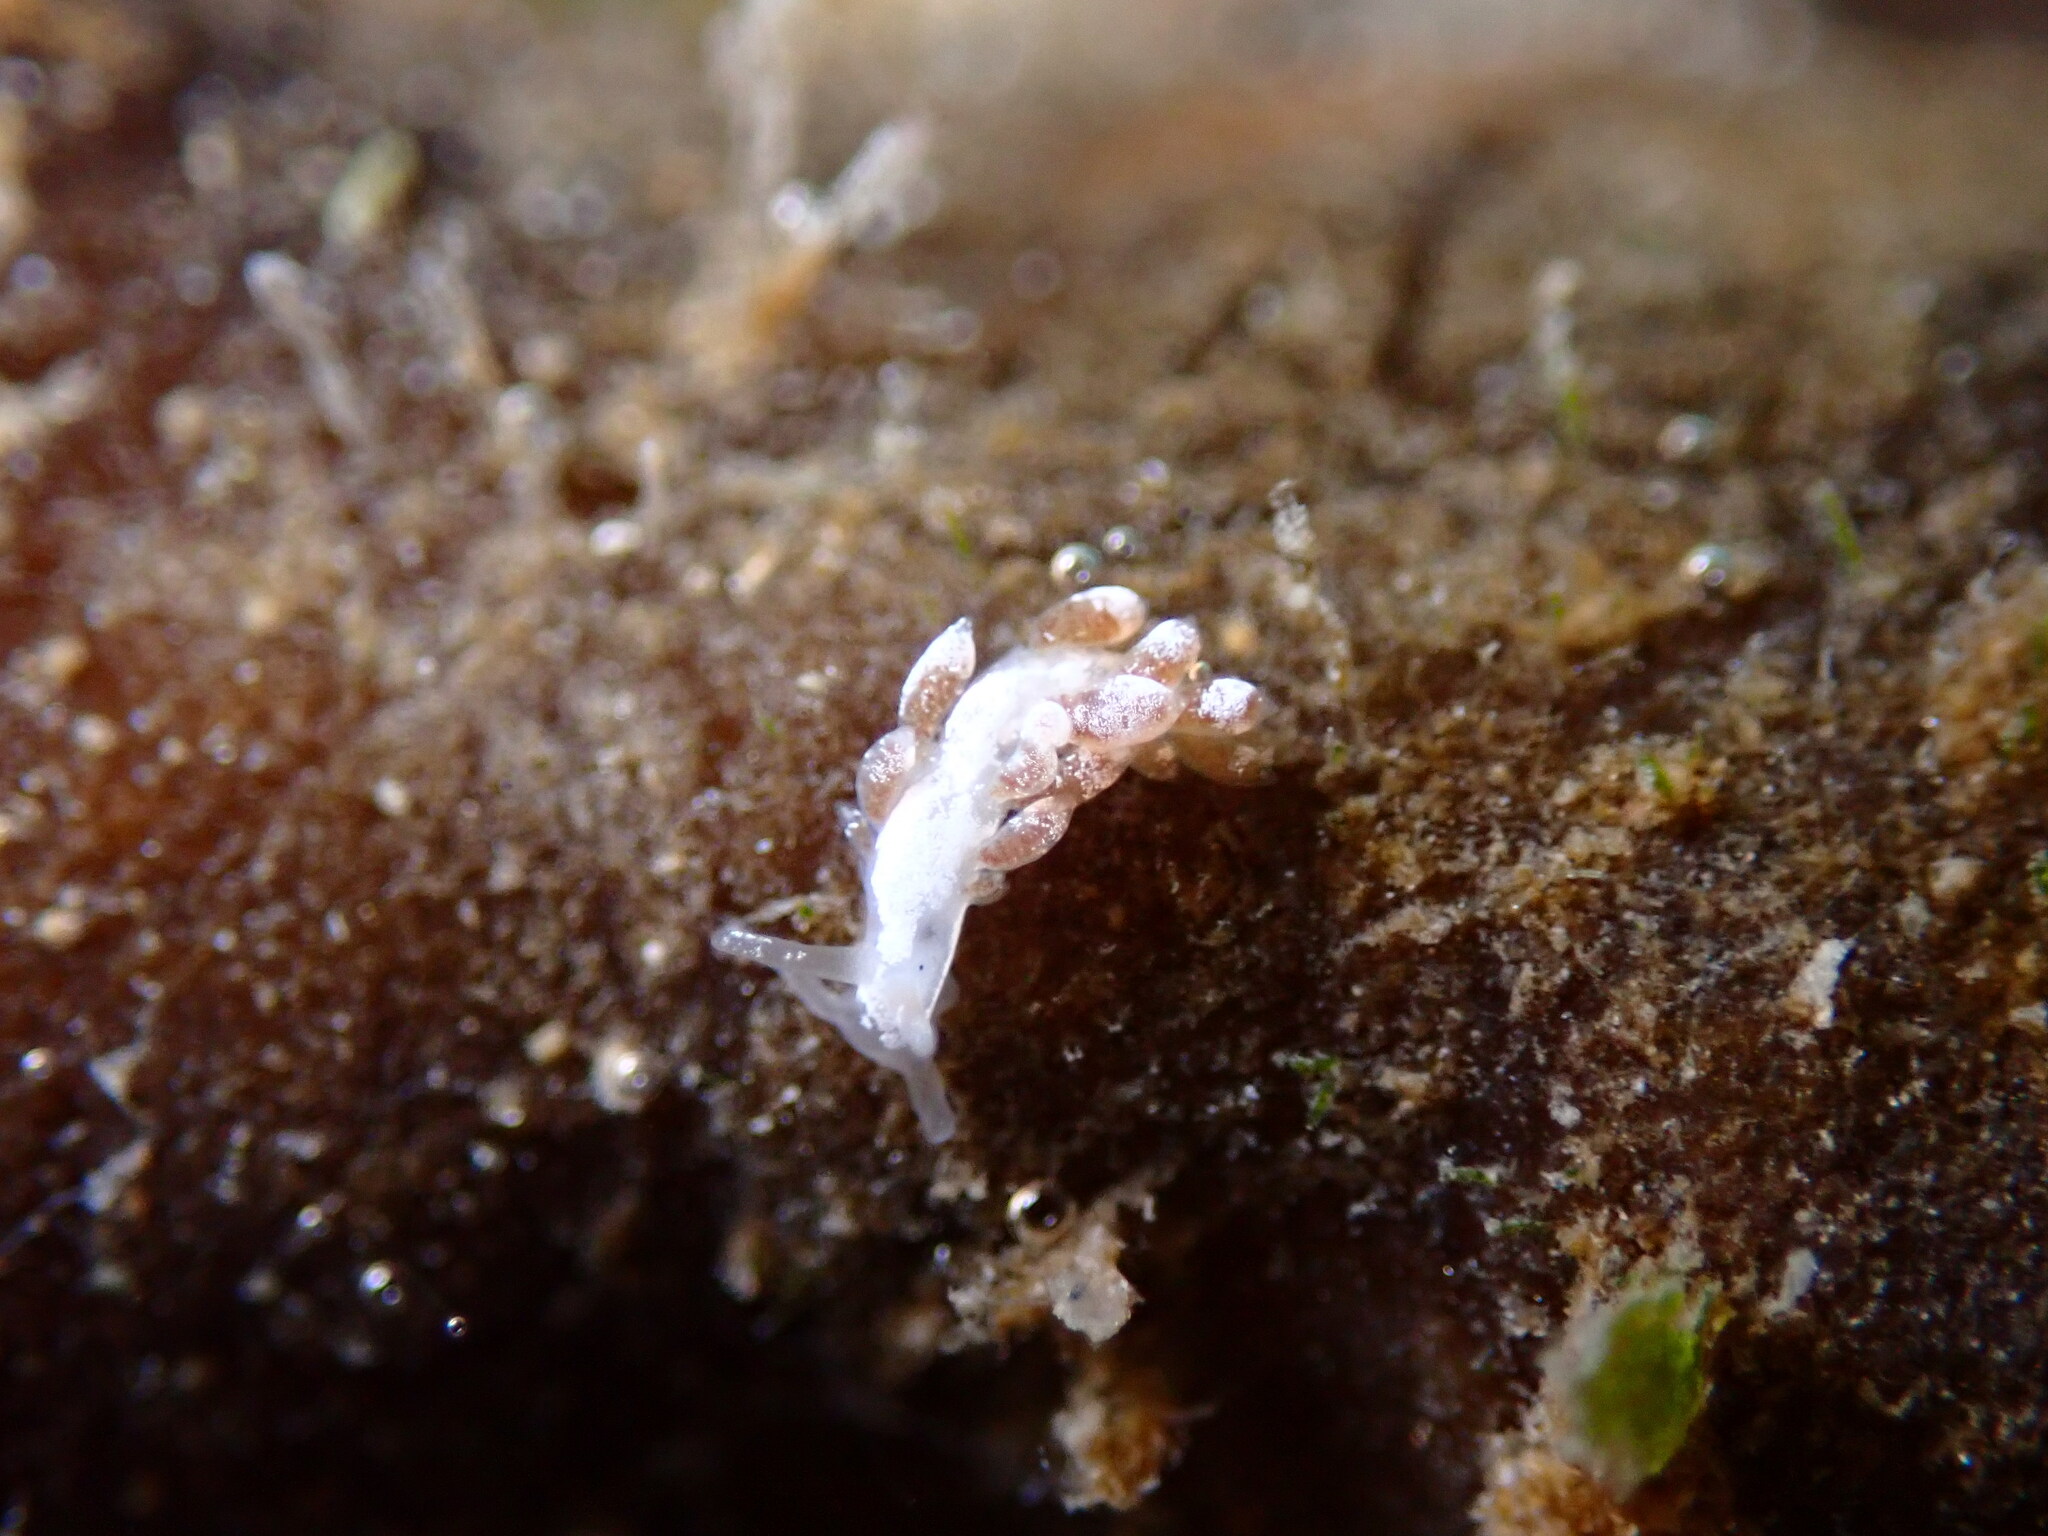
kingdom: Animalia
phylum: Mollusca
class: Gastropoda
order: Nudibranchia
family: Trinchesiidae
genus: Trinchesia
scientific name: Trinchesia albocrusta
